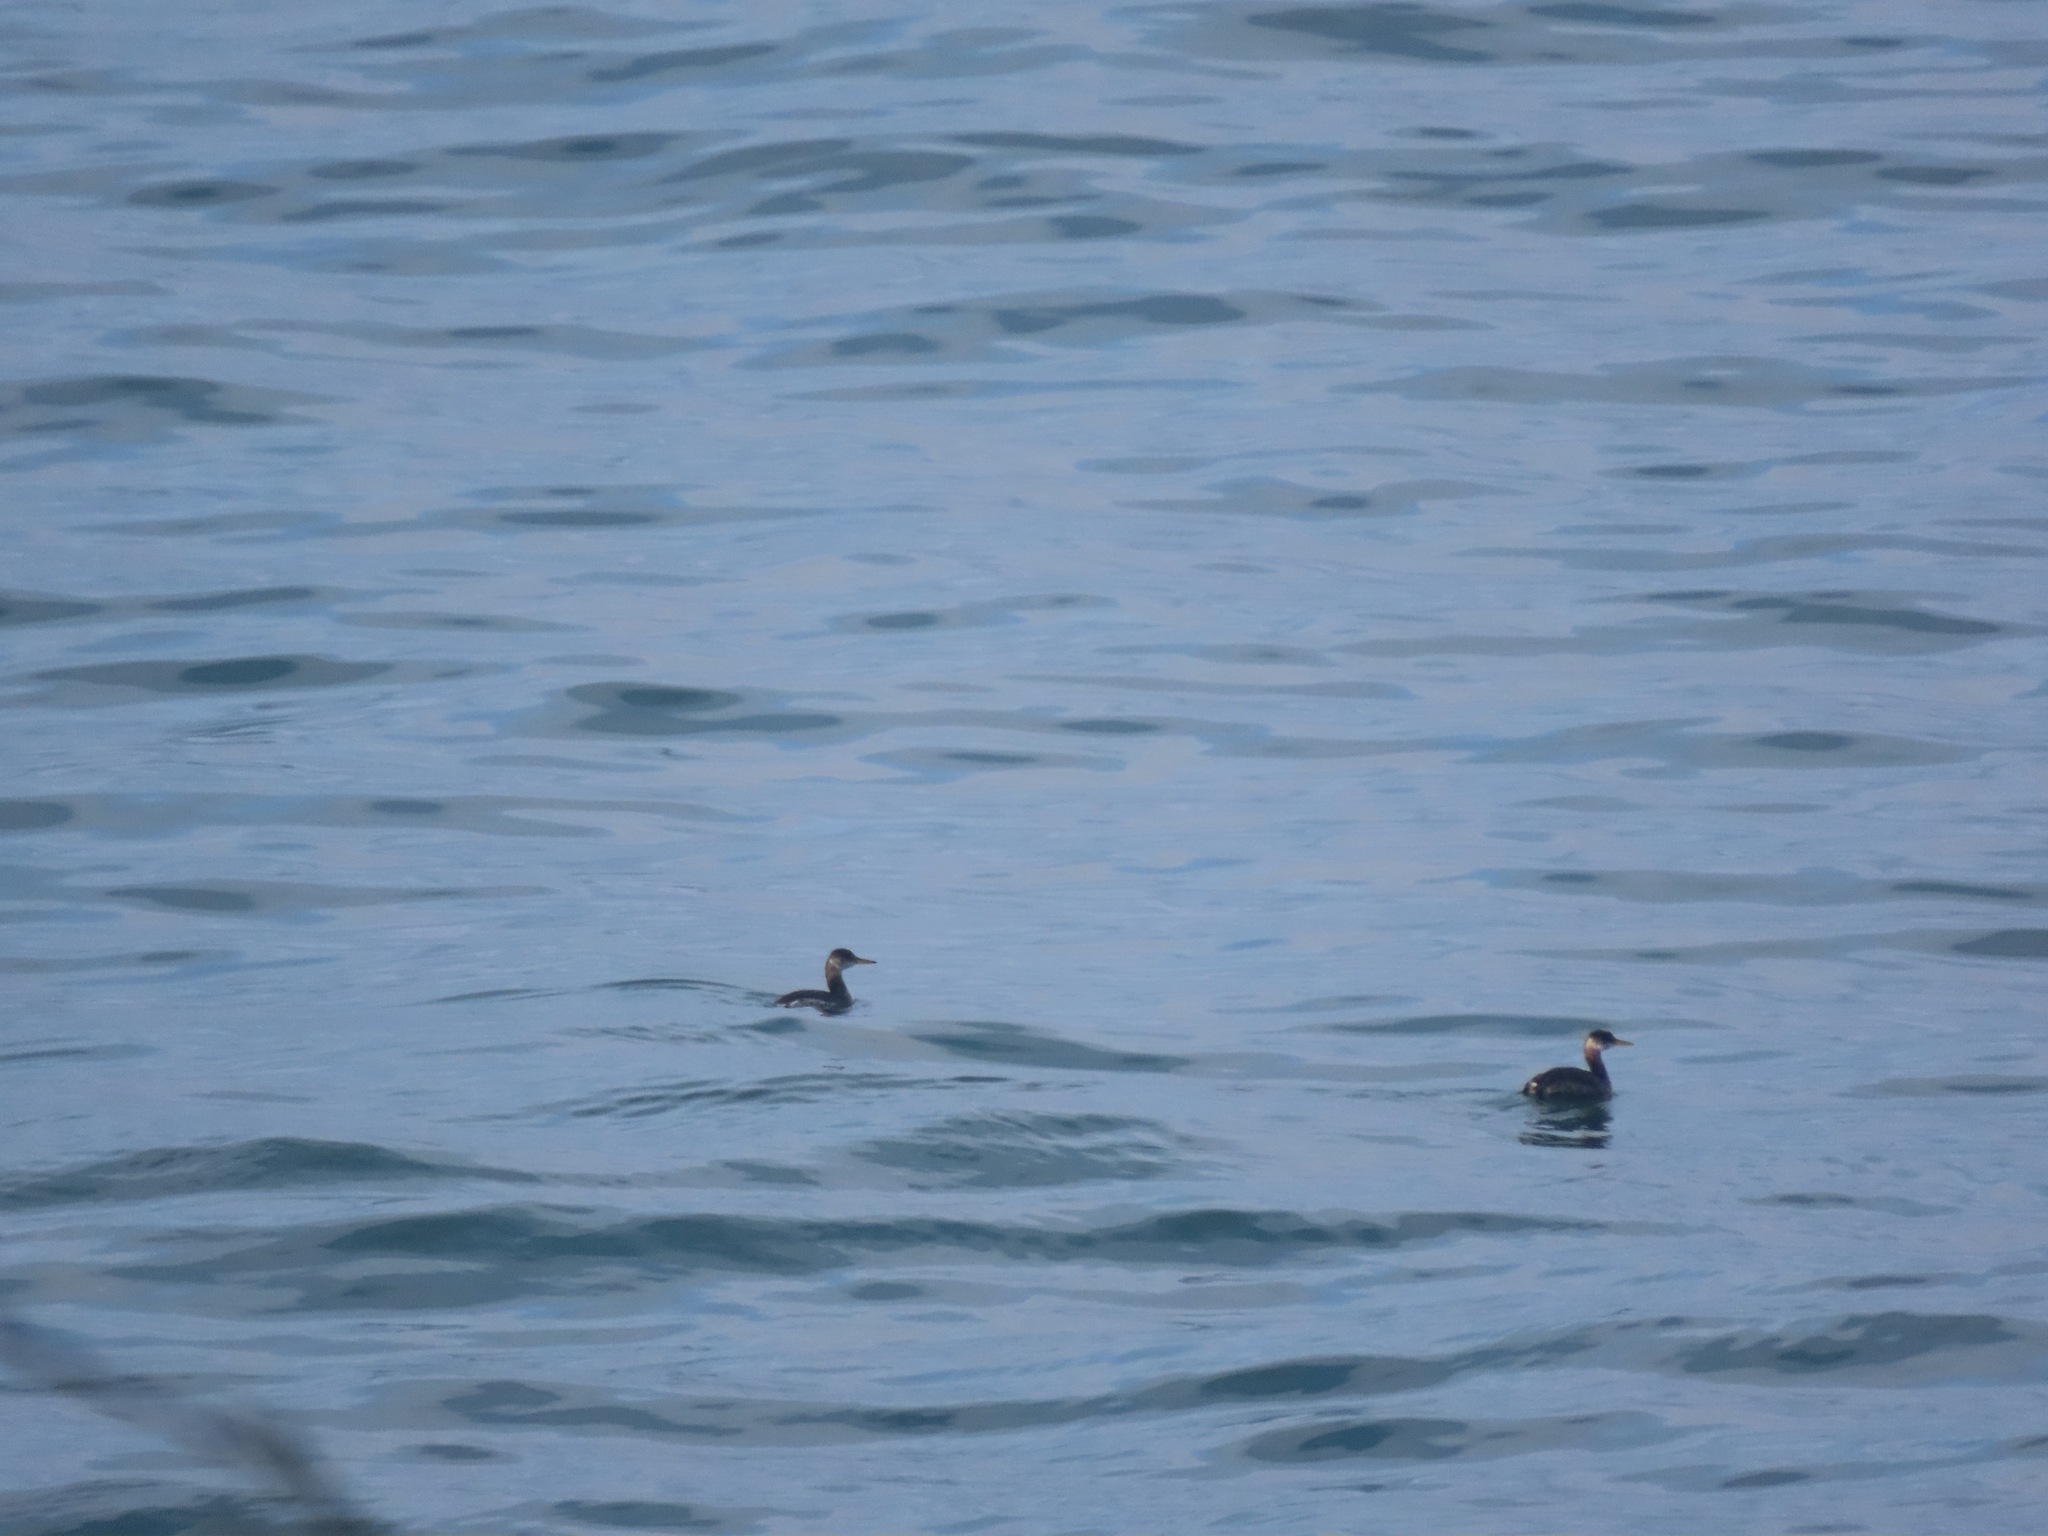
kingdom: Animalia
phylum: Chordata
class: Aves
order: Podicipediformes
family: Podicipedidae
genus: Podiceps
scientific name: Podiceps grisegena
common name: Red-necked grebe
